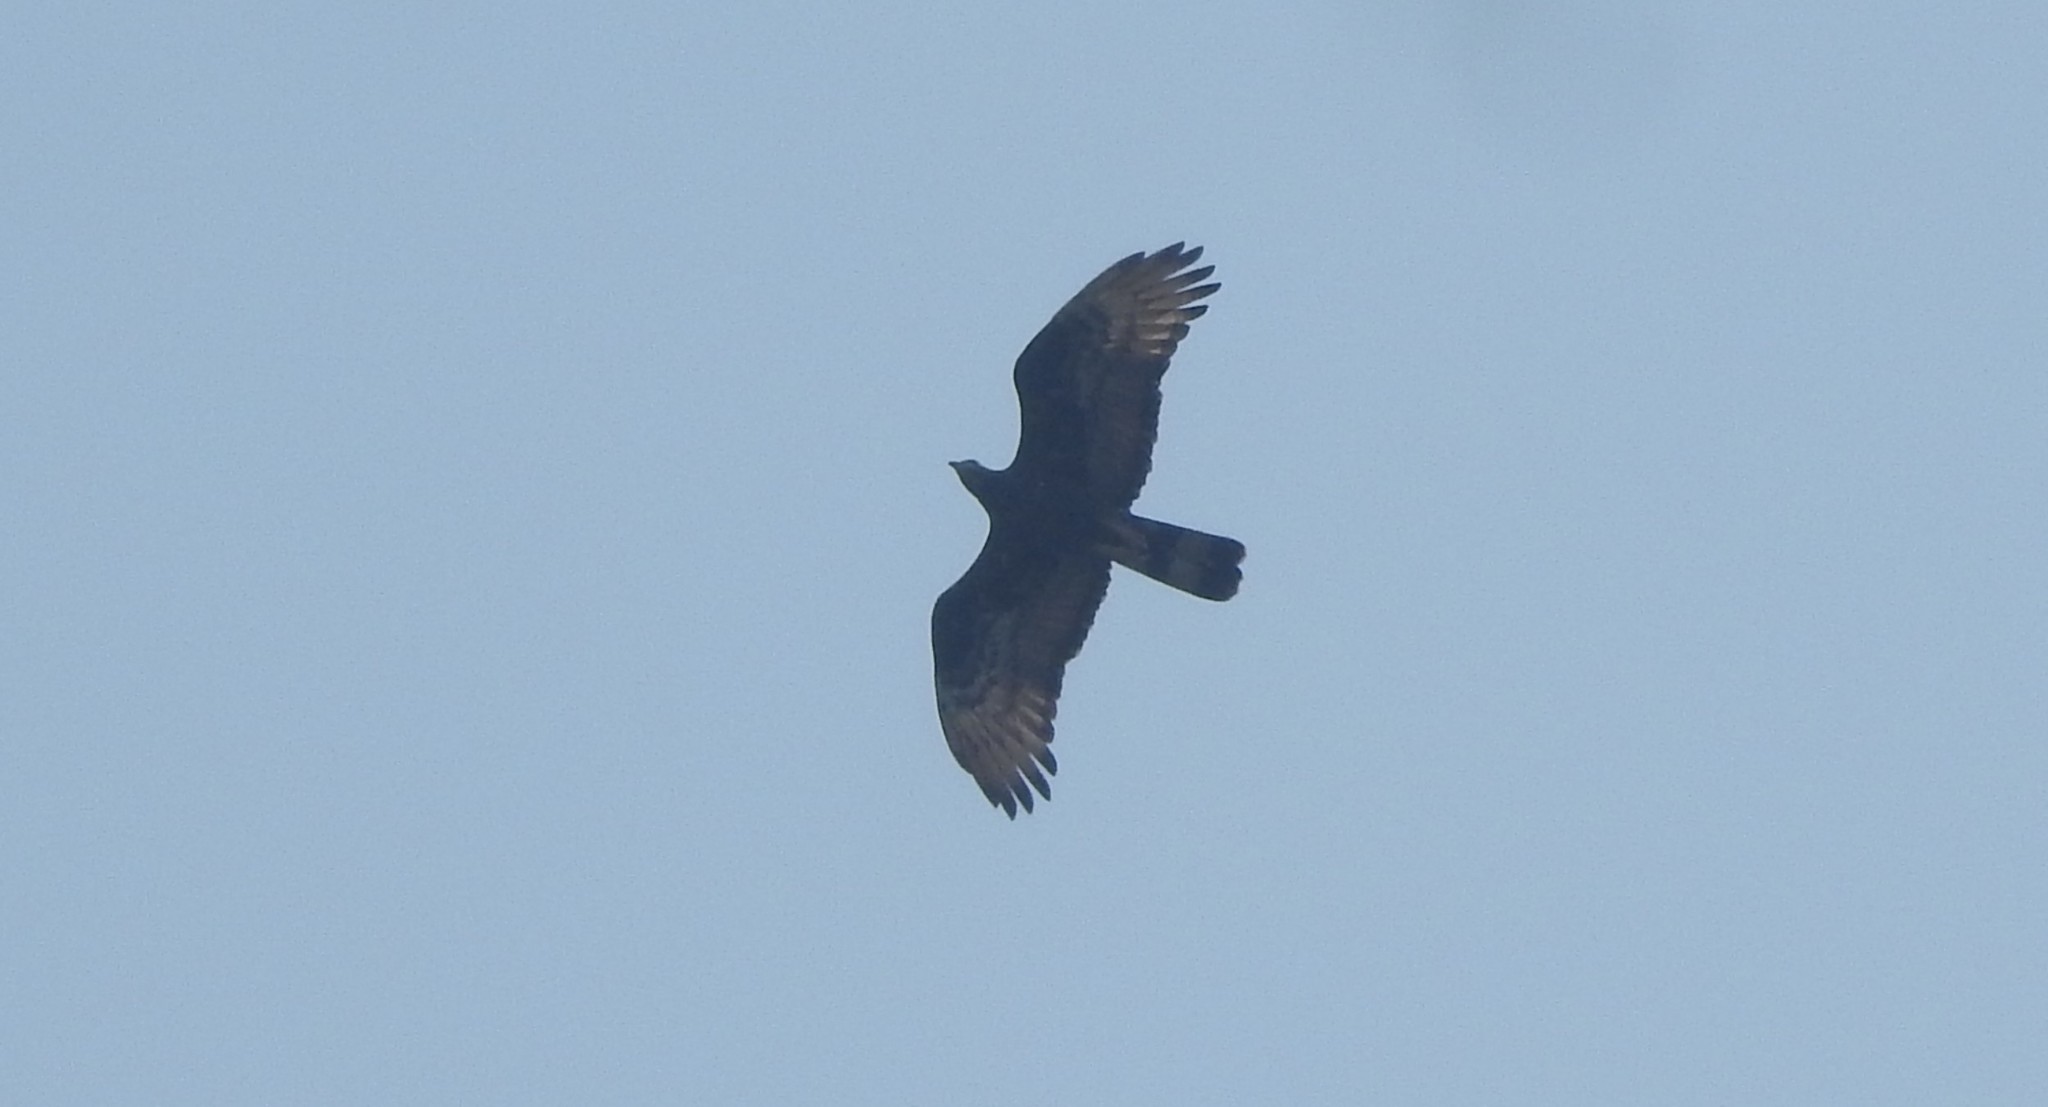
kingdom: Animalia
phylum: Chordata
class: Aves
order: Accipitriformes
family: Accipitridae
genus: Pernis
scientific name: Pernis ptilorhynchus
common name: Crested honey buzzard
